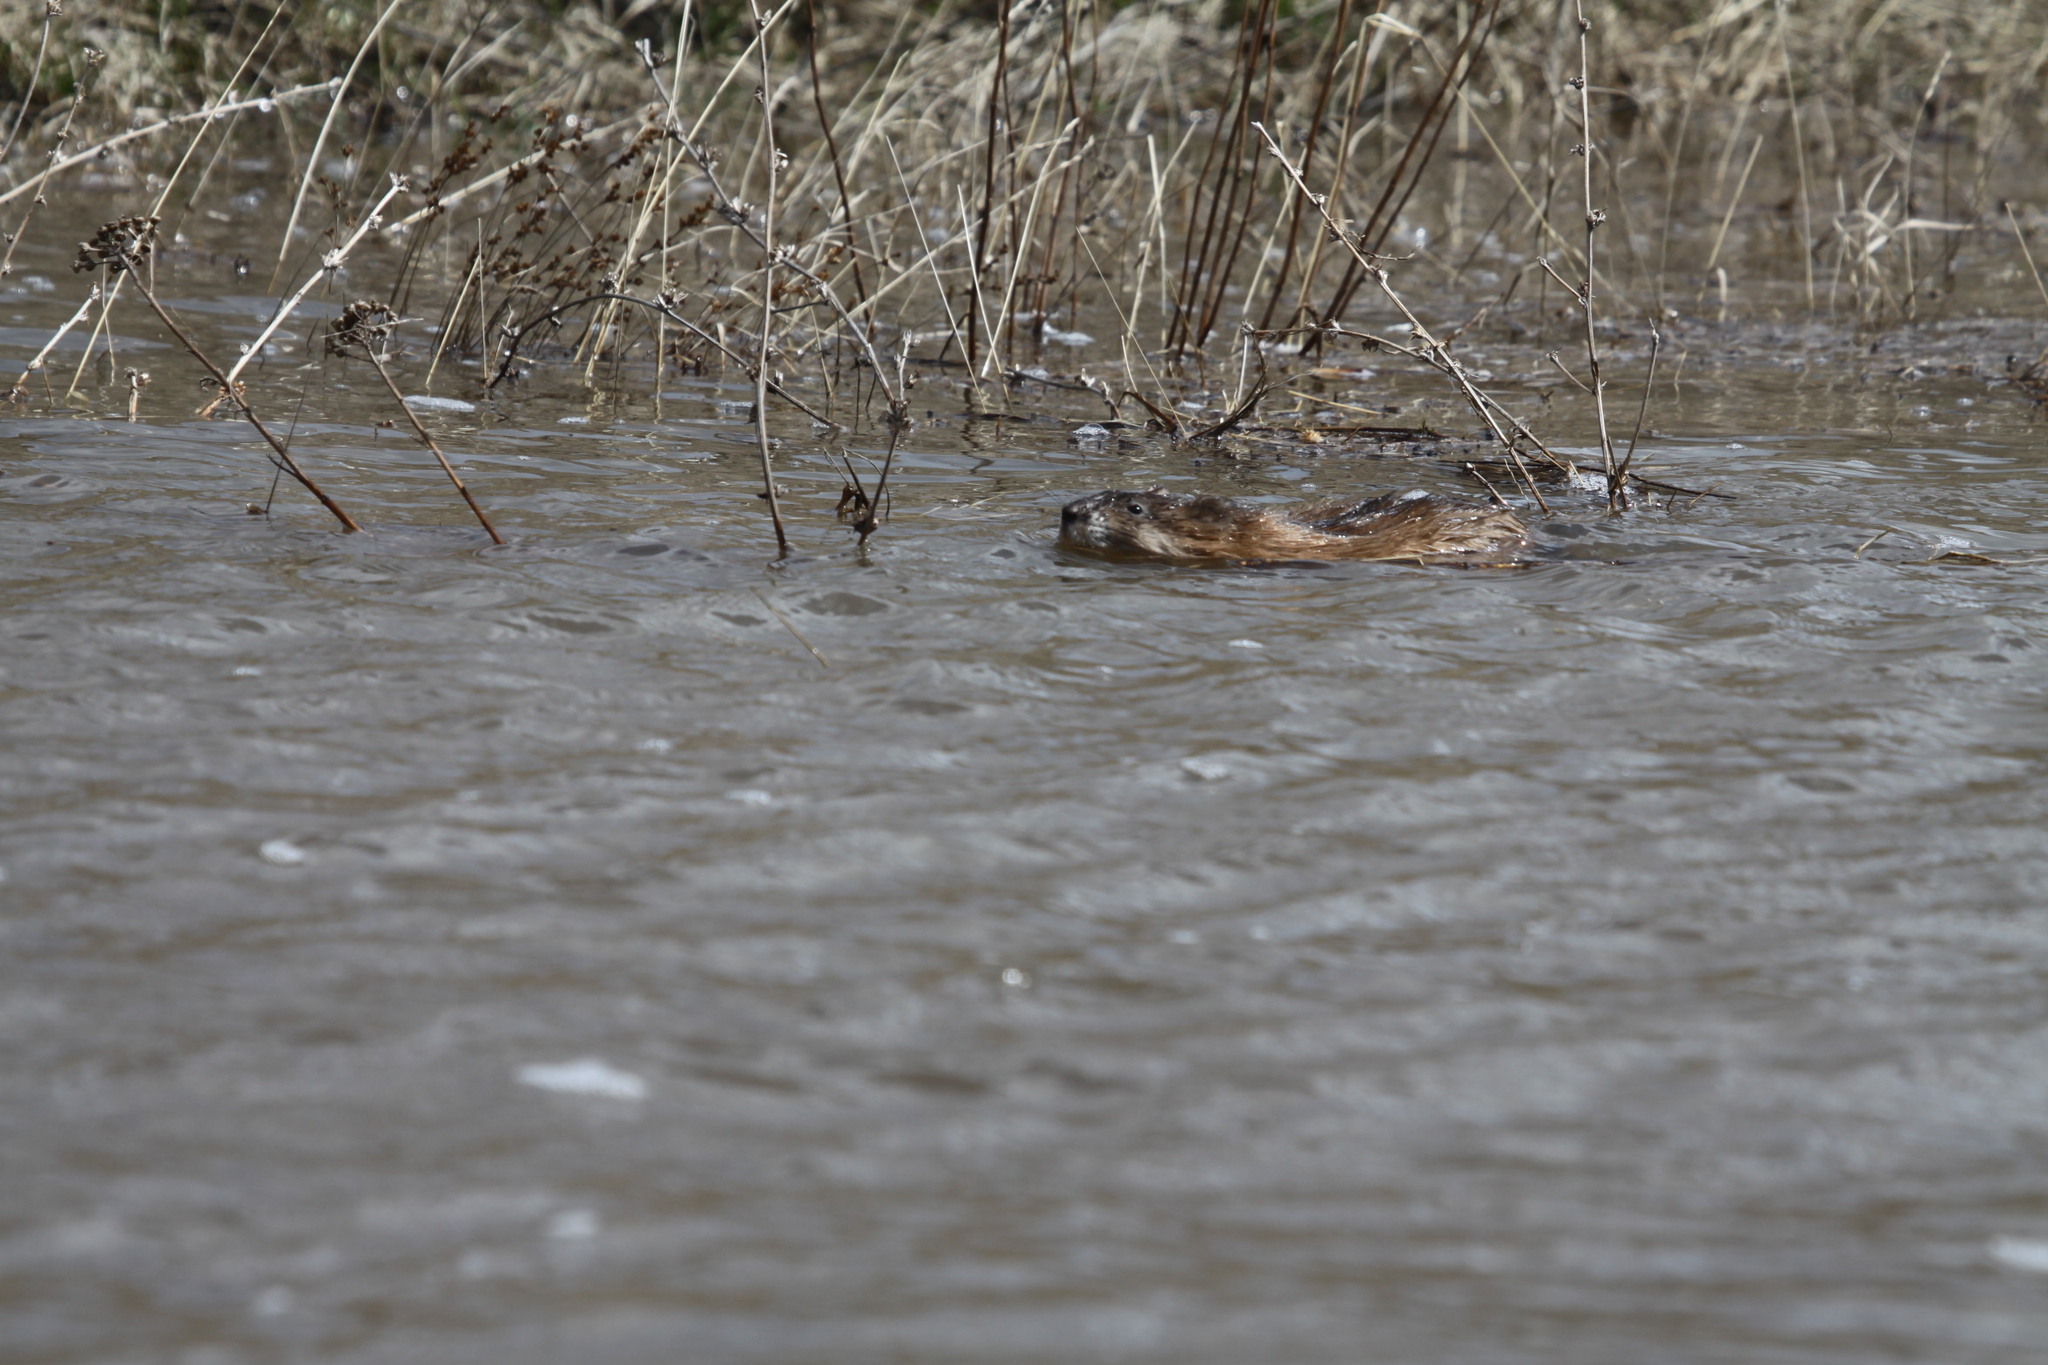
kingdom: Animalia
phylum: Chordata
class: Mammalia
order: Rodentia
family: Cricetidae
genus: Ondatra
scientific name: Ondatra zibethicus
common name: Muskrat
